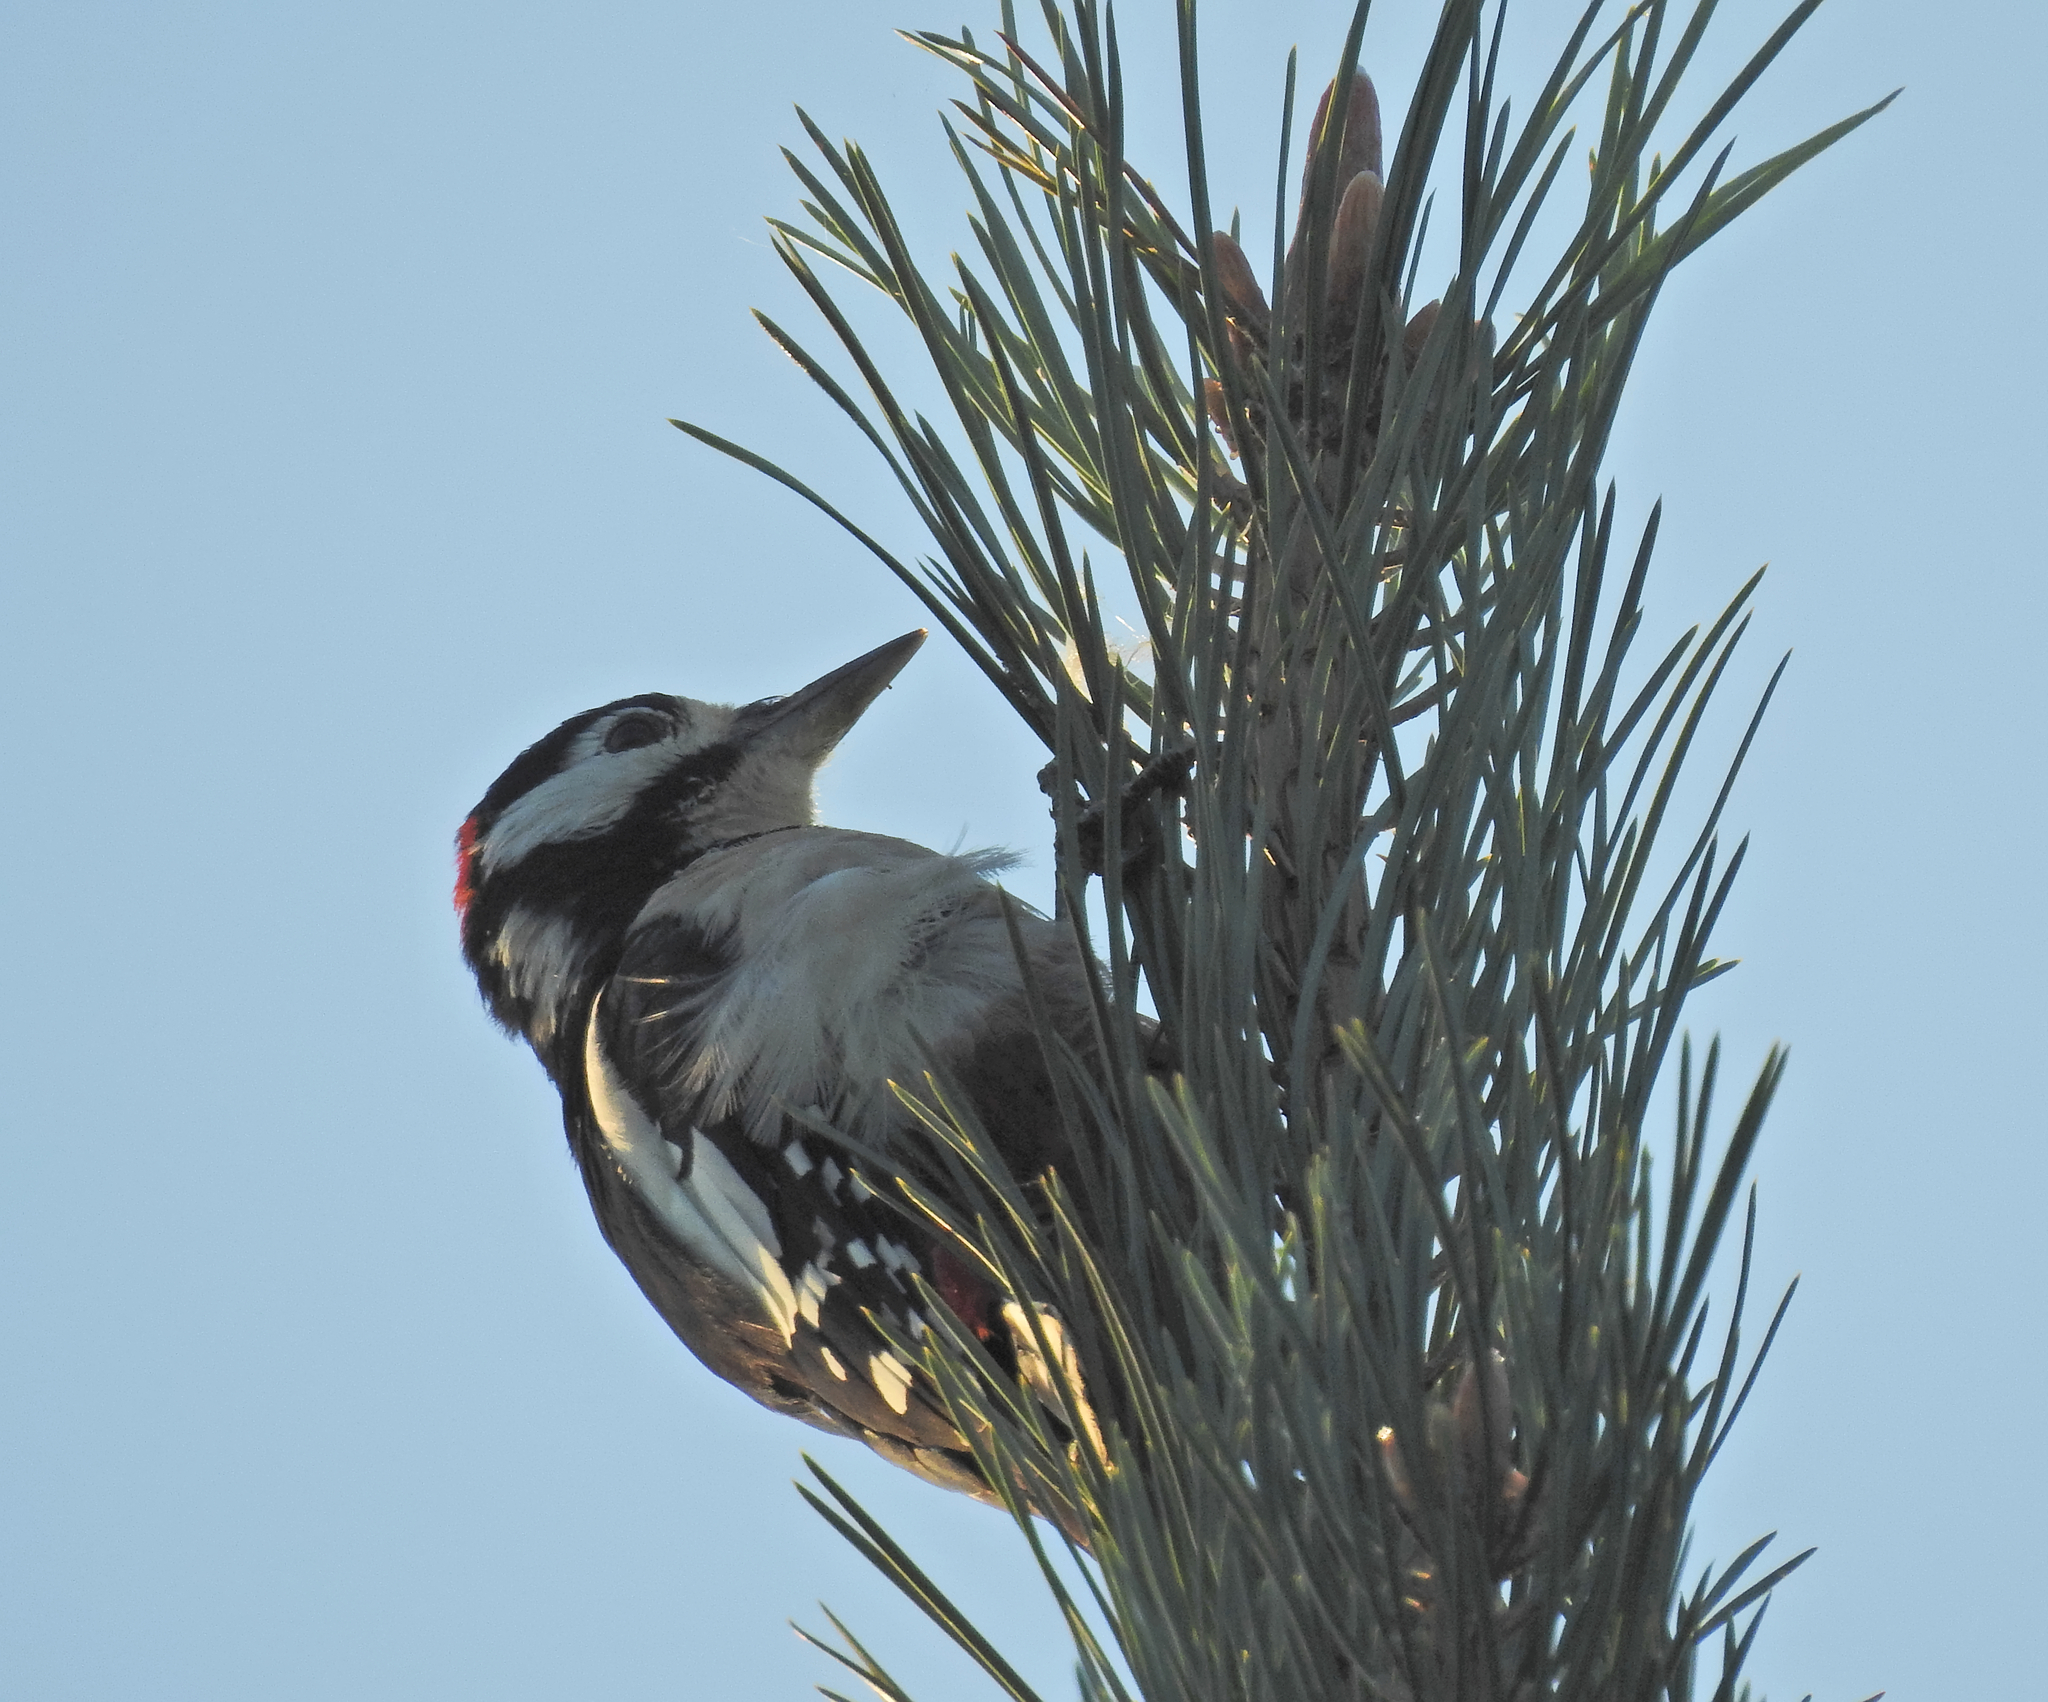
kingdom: Animalia
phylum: Chordata
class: Aves
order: Piciformes
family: Picidae
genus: Dendrocopos
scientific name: Dendrocopos major
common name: Great spotted woodpecker
